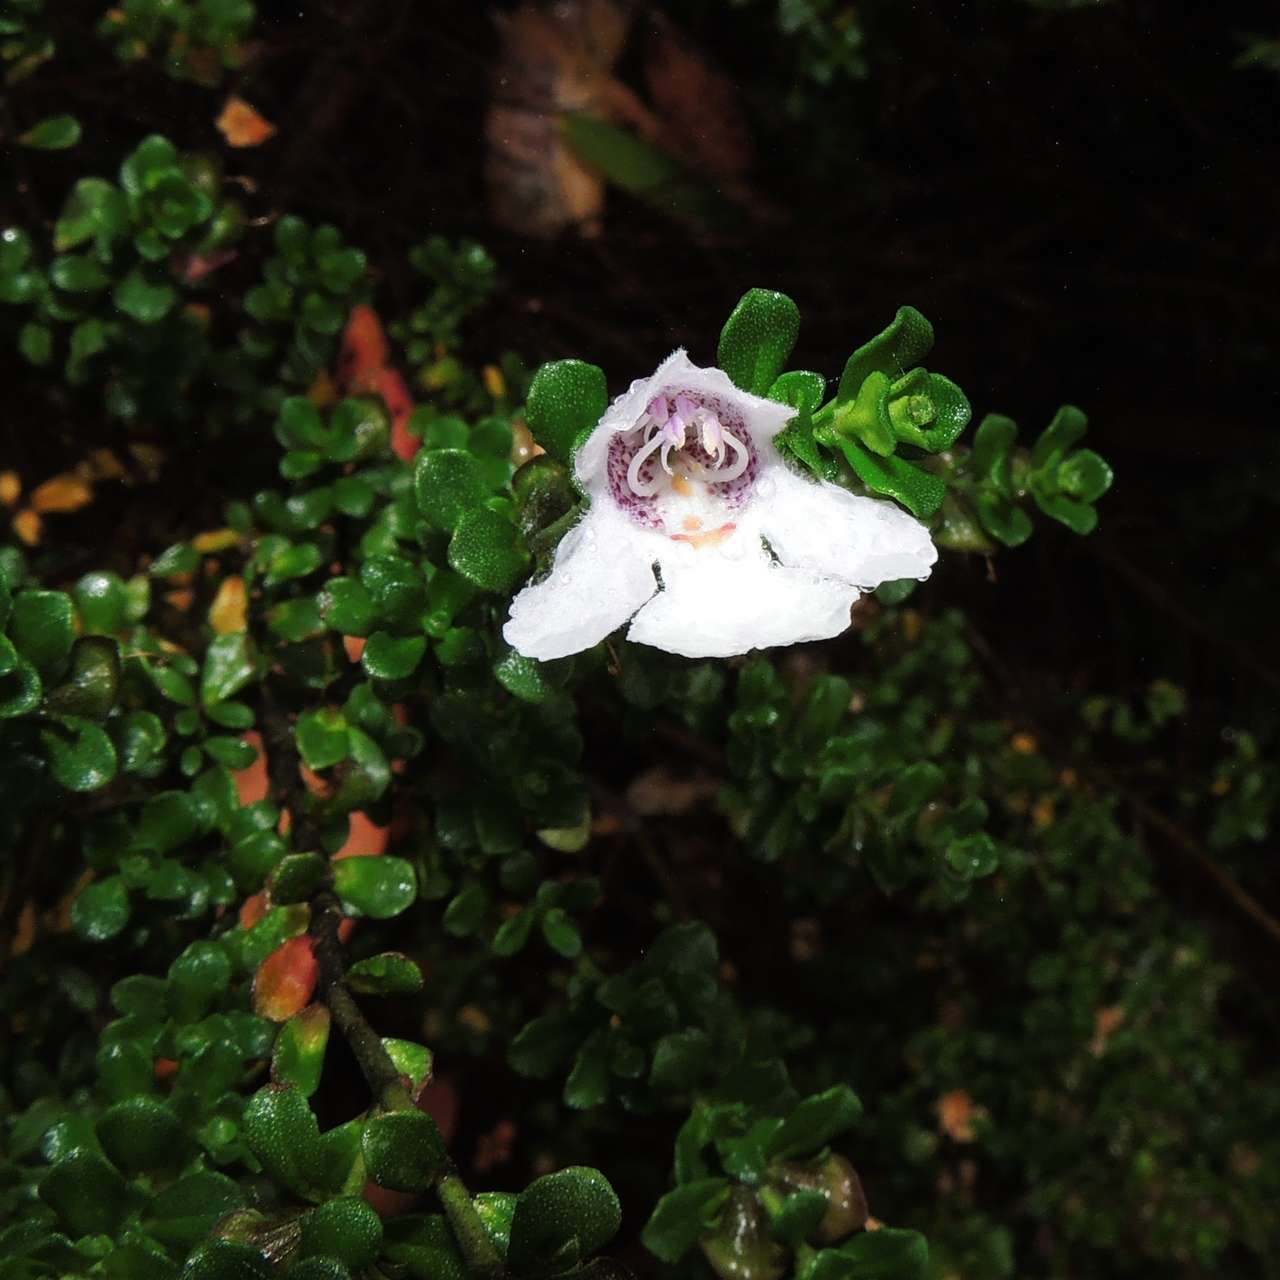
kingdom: Plantae
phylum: Tracheophyta
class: Magnoliopsida
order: Lamiales
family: Lamiaceae
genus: Prostanthera
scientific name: Prostanthera cuneata
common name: Alpine mintbush
